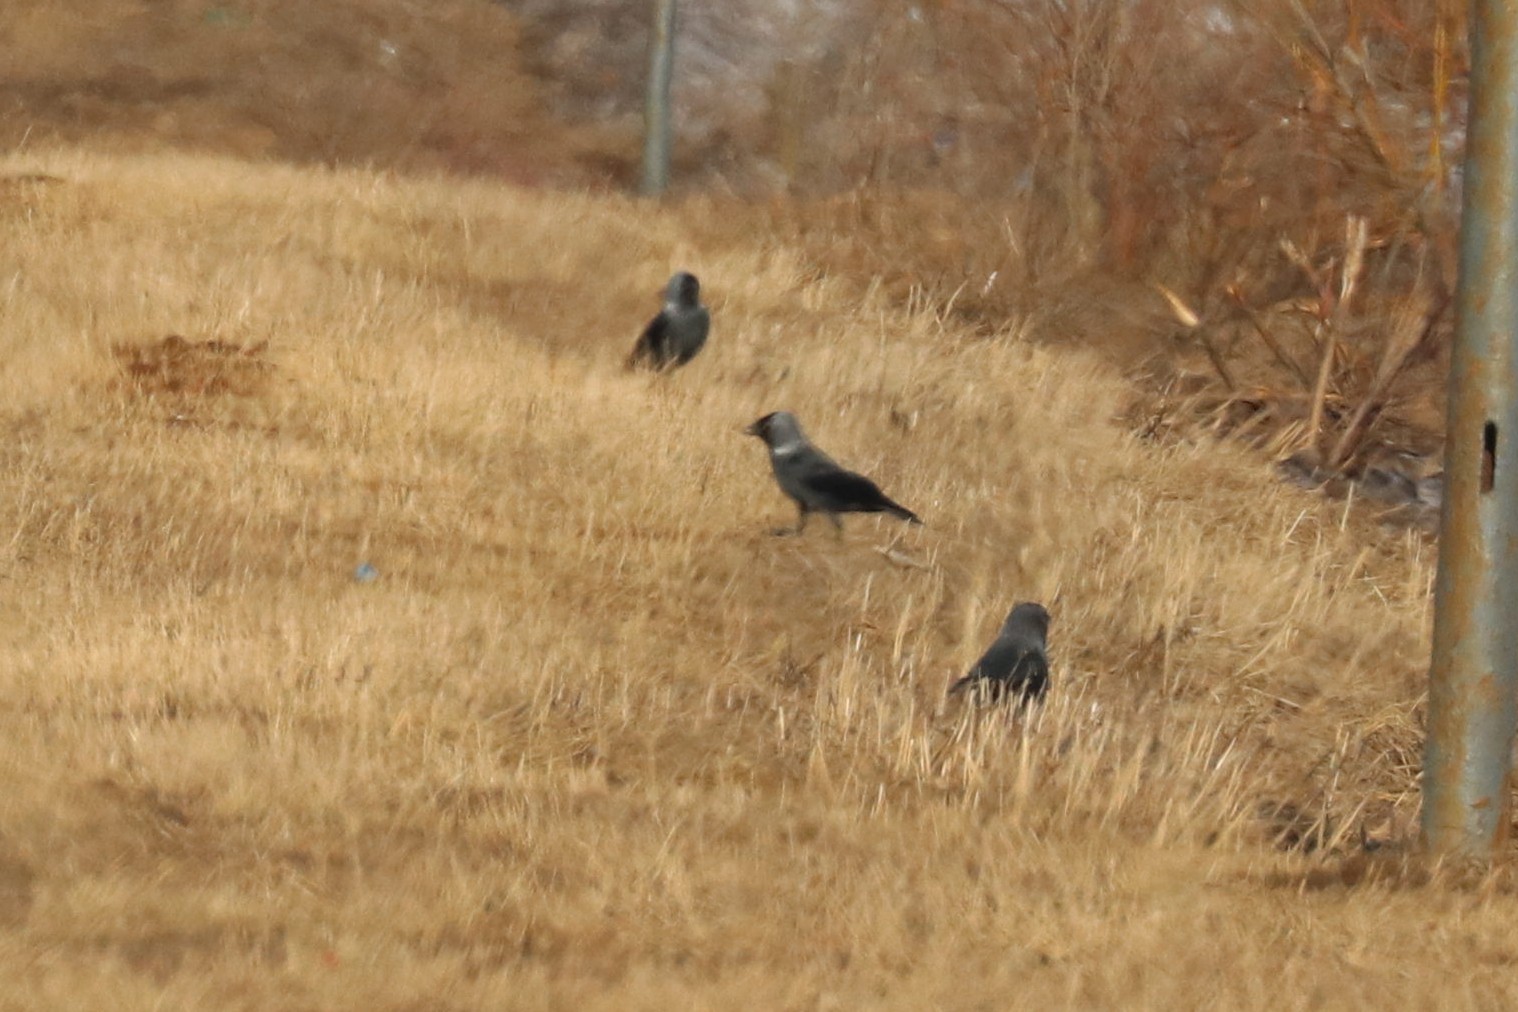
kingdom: Animalia
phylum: Chordata
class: Aves
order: Passeriformes
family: Corvidae
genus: Coloeus
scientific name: Coloeus monedula
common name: Western jackdaw
